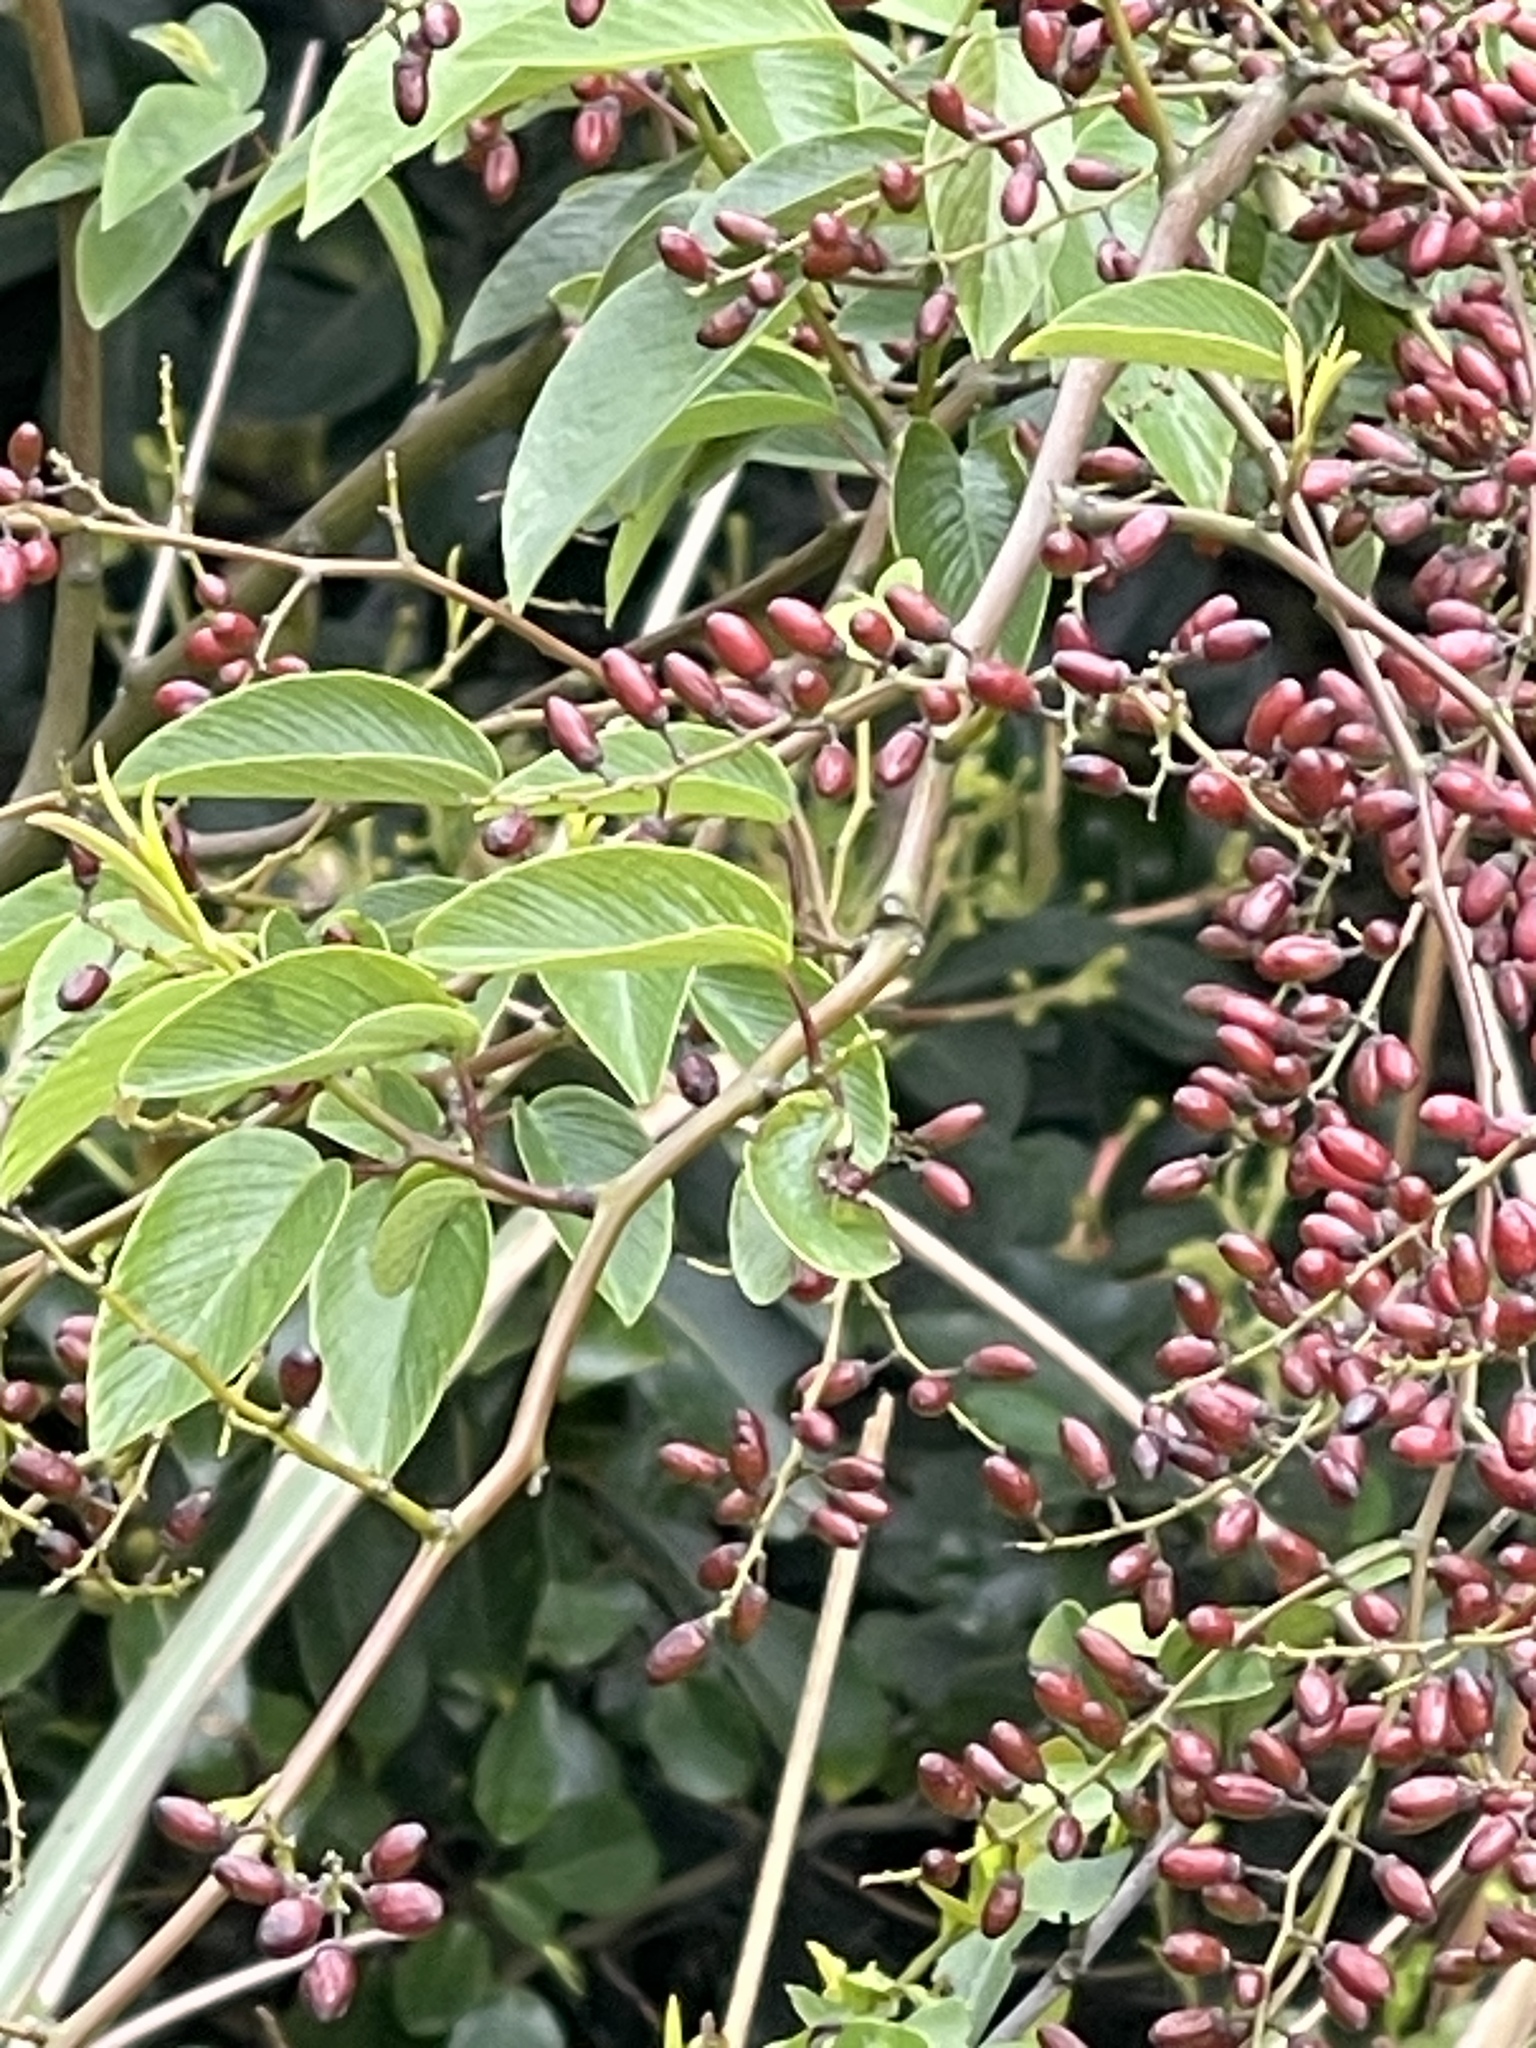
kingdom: Plantae
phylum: Tracheophyta
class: Magnoliopsida
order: Rosales
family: Rhamnaceae
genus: Berchemia
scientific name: Berchemia floribunda
